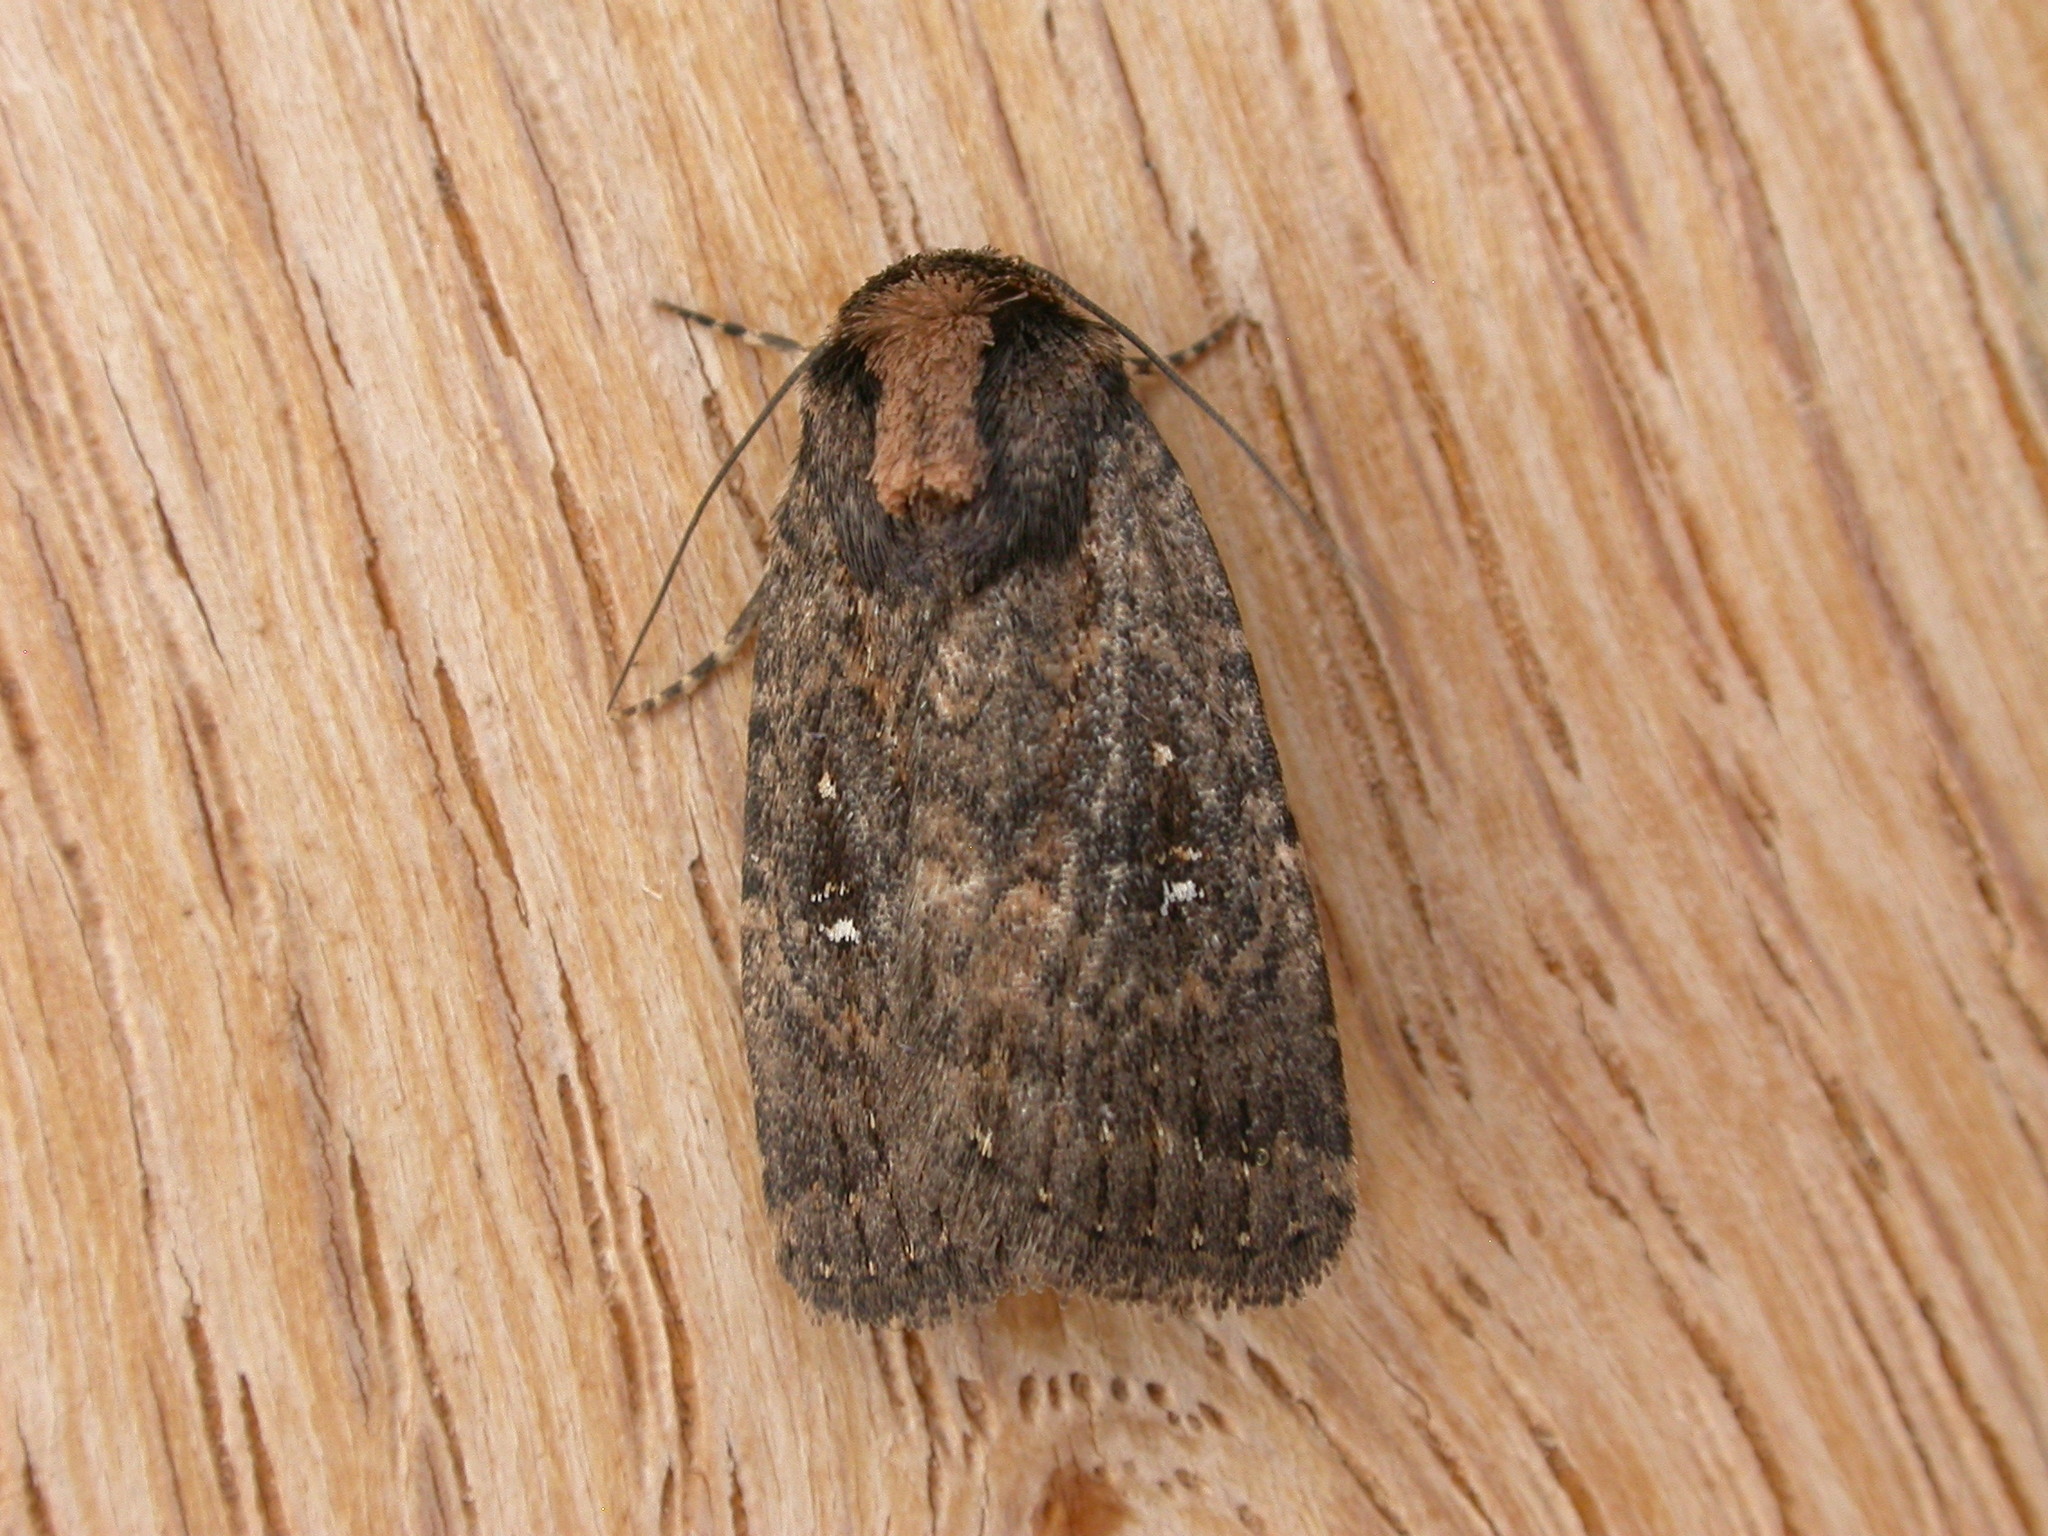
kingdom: Animalia
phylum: Arthropoda
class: Insecta
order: Lepidoptera
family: Noctuidae
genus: Thoracolopha
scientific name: Thoracolopha nycteris
